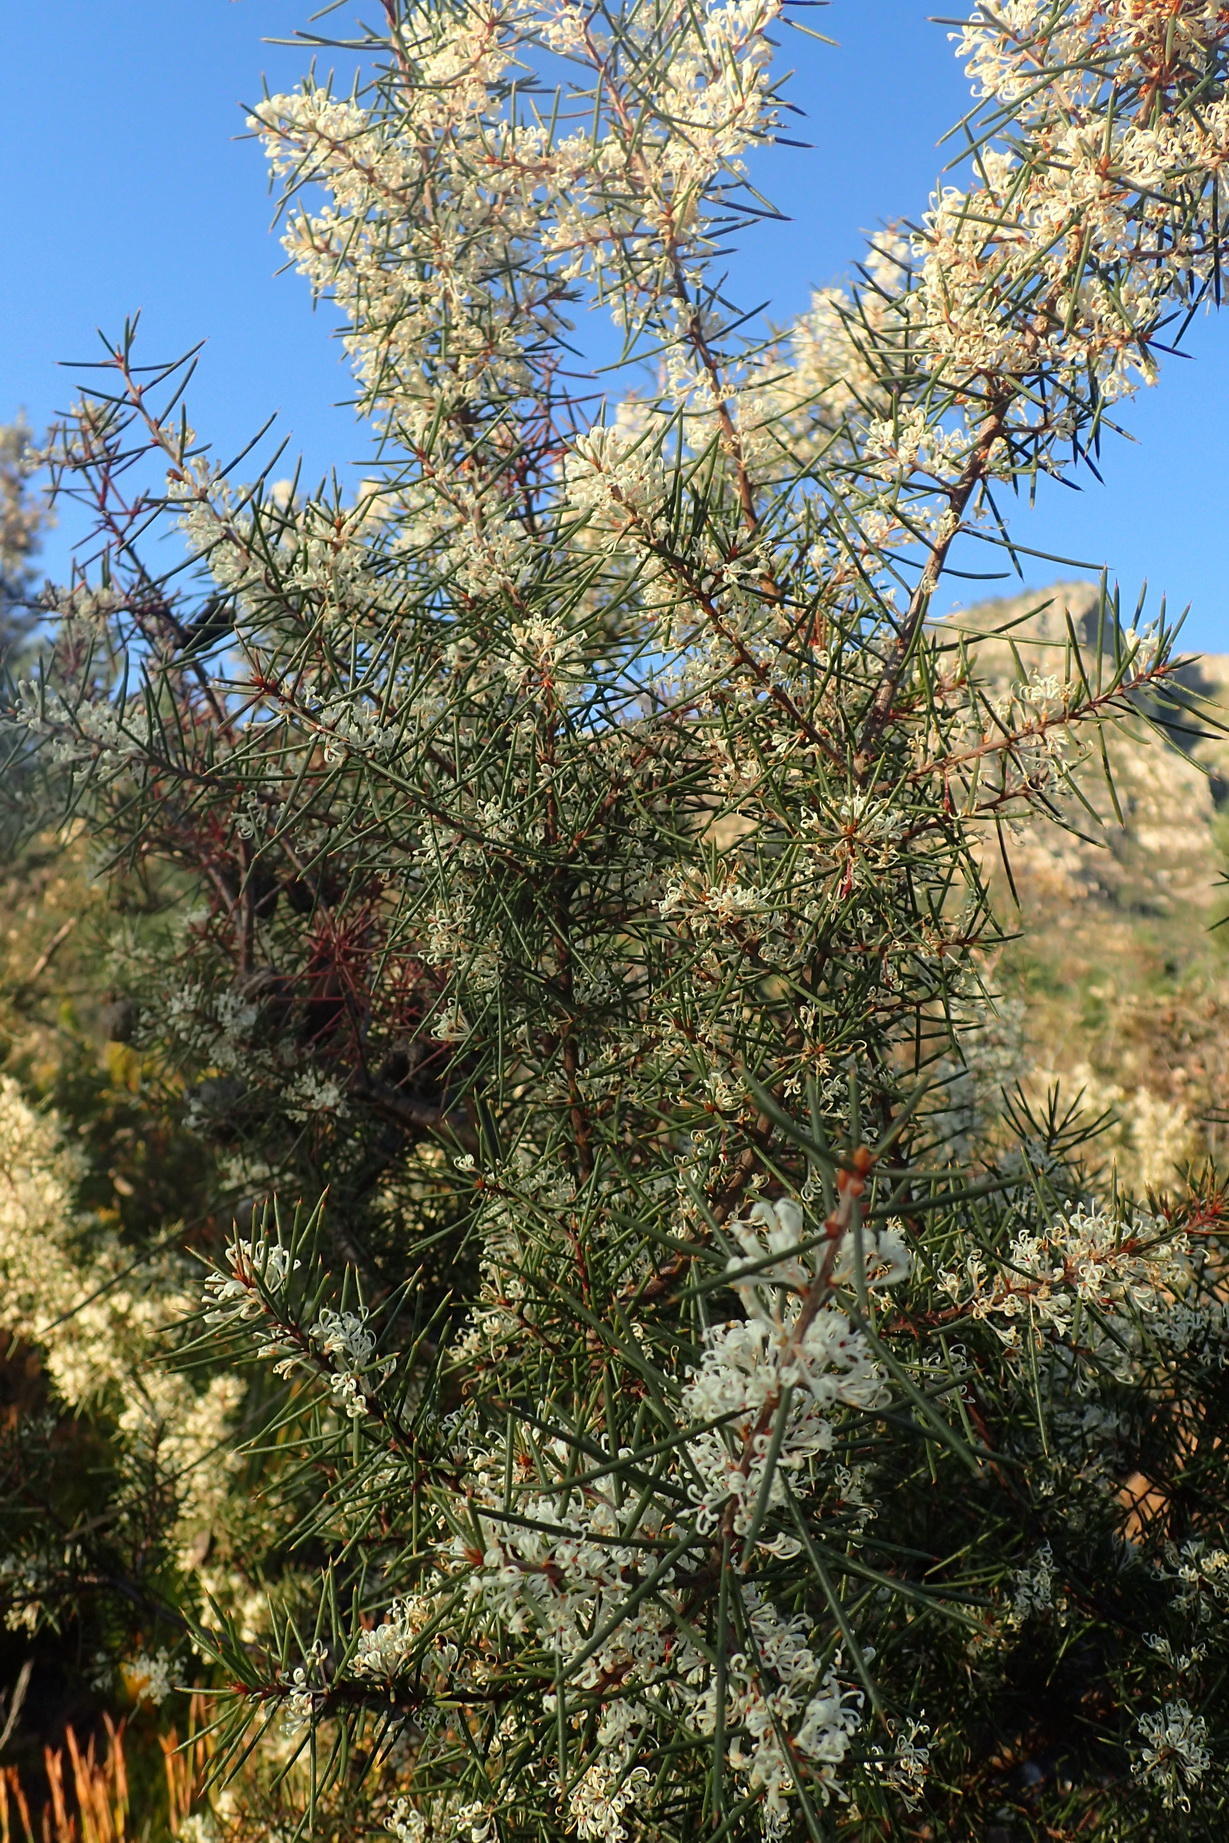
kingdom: Plantae
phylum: Tracheophyta
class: Magnoliopsida
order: Proteales
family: Proteaceae
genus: Hakea
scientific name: Hakea sericea
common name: Needle bush
